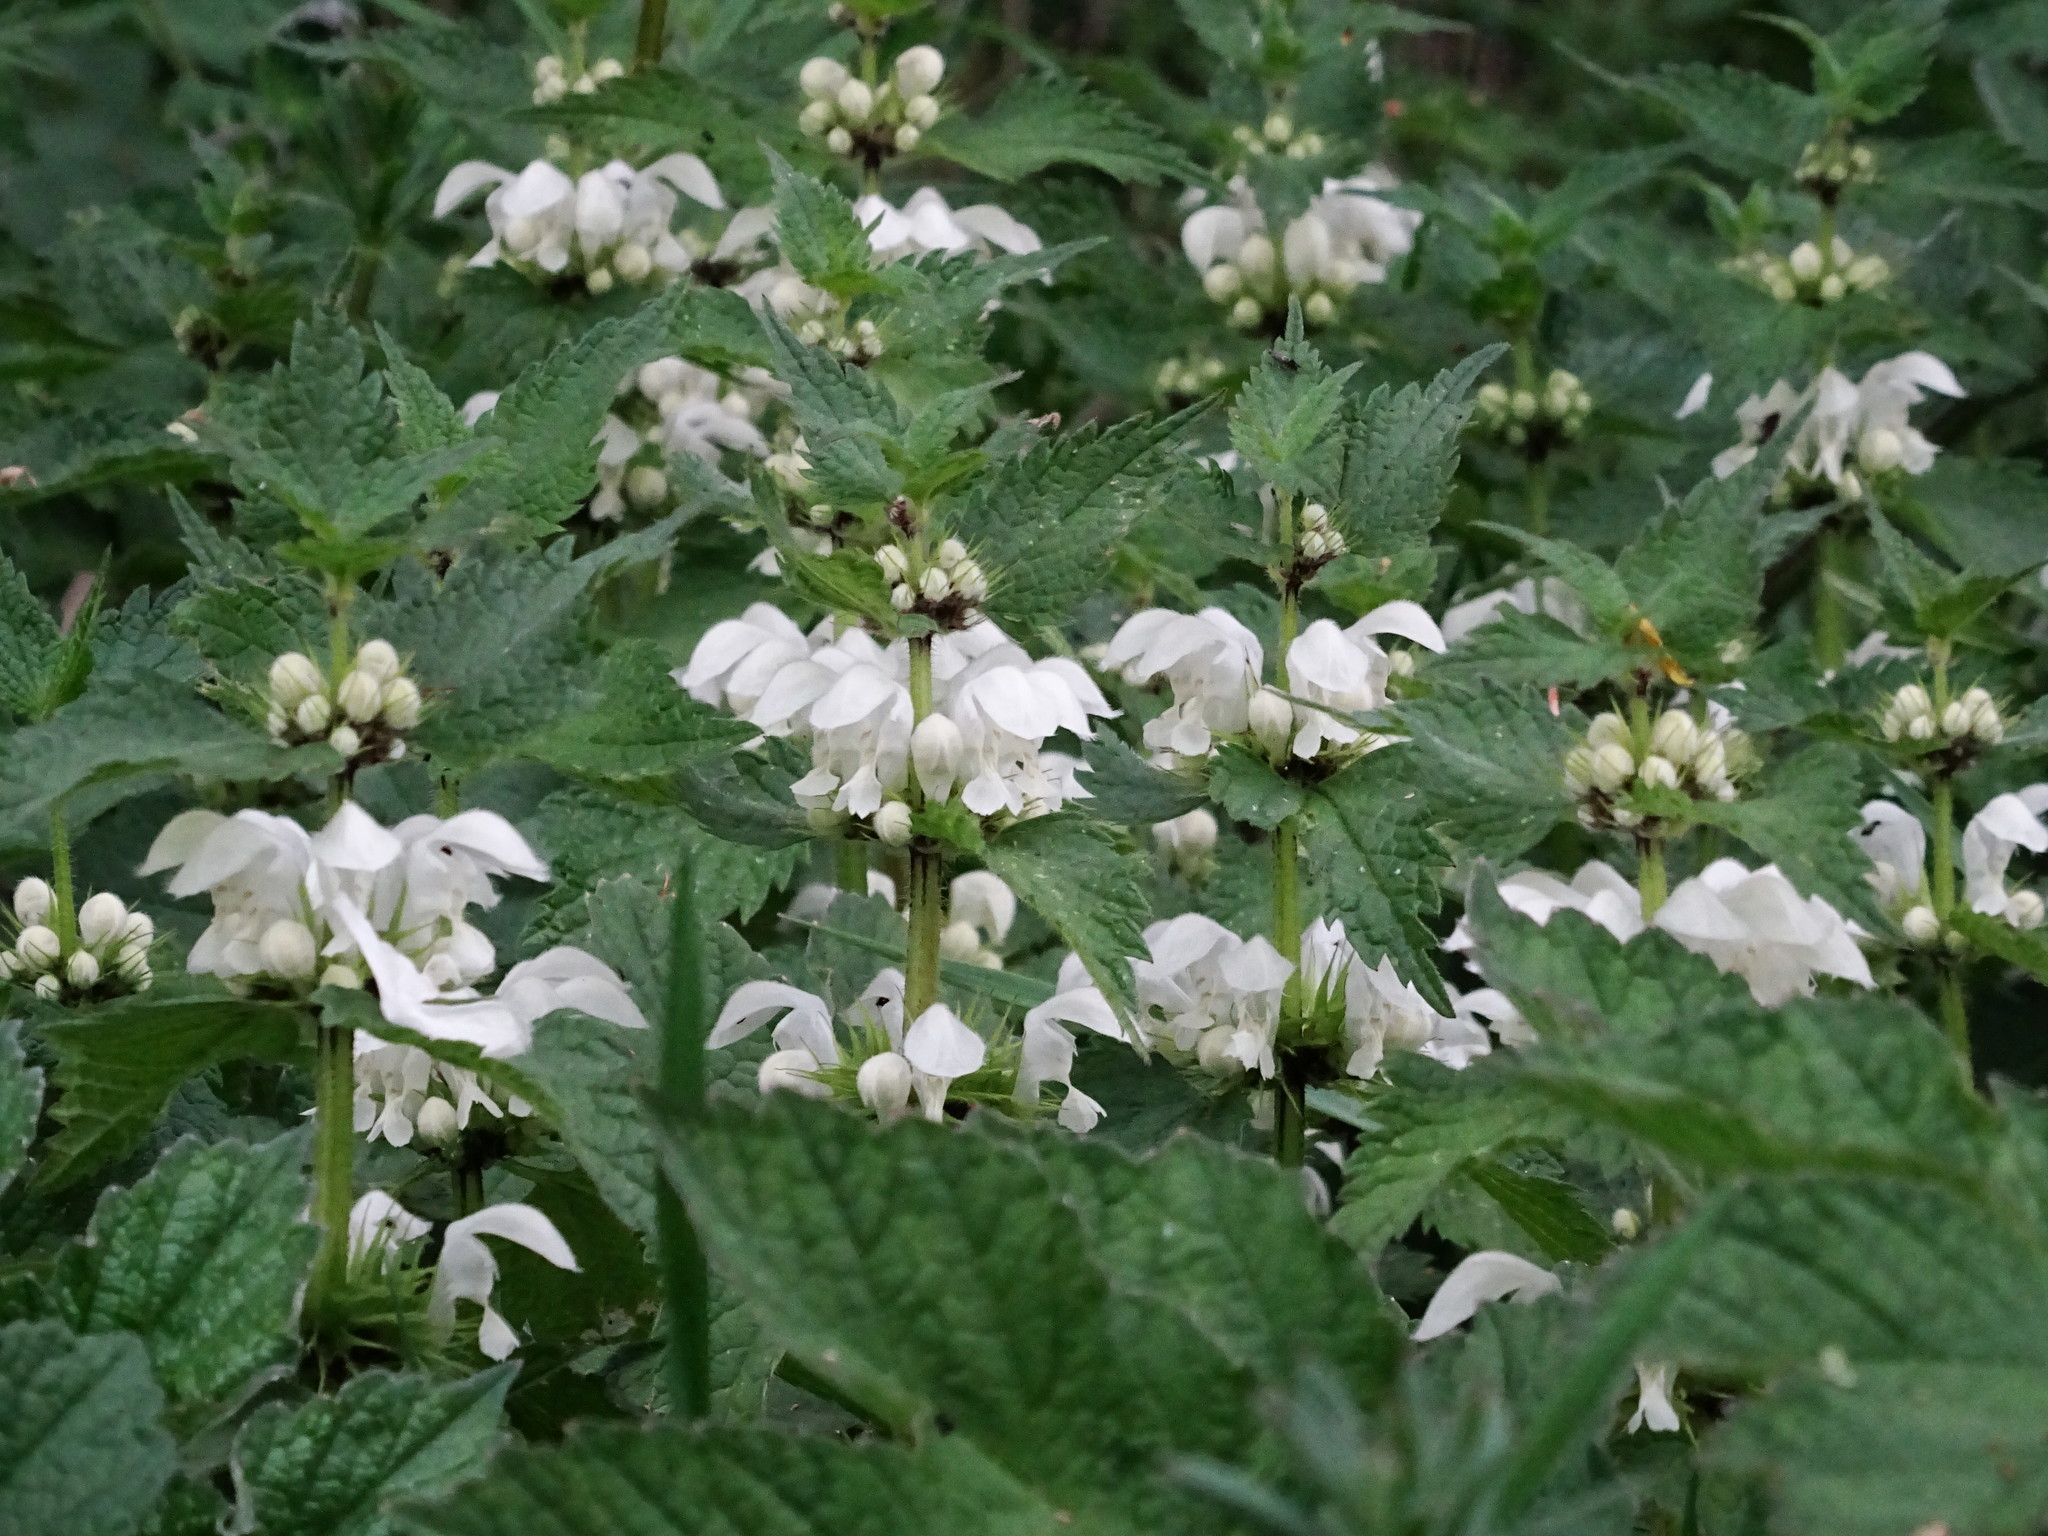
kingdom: Plantae
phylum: Tracheophyta
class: Magnoliopsida
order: Lamiales
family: Lamiaceae
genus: Lamium
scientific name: Lamium album
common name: White dead-nettle
